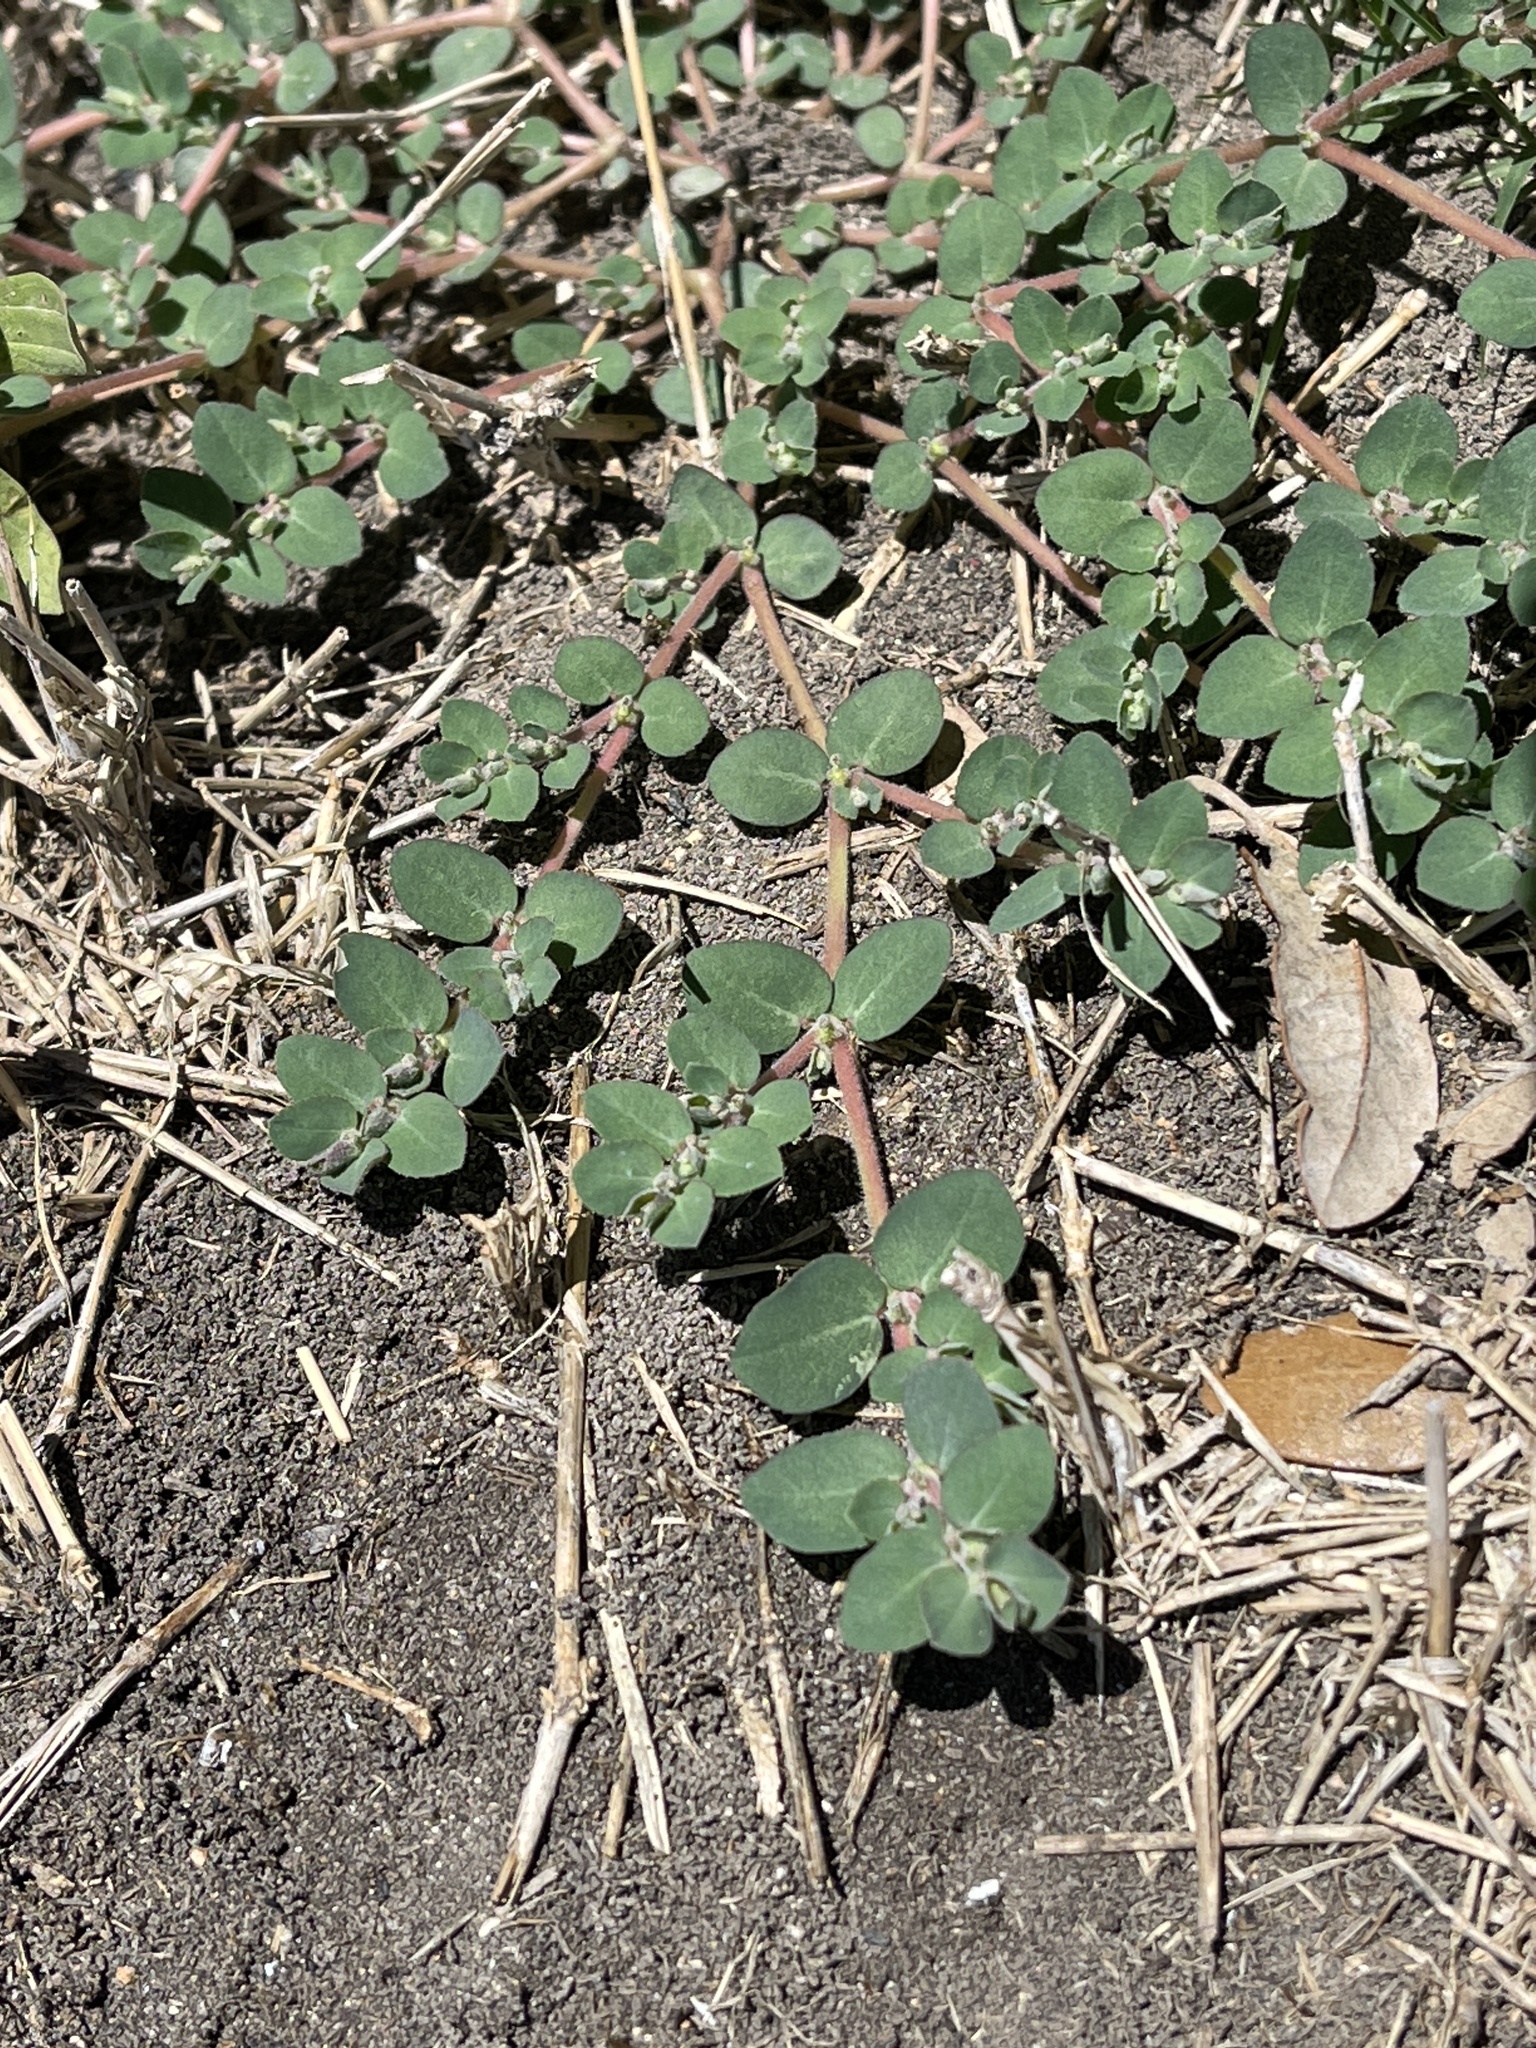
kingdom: Plantae
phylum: Tracheophyta
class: Magnoliopsida
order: Malpighiales
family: Euphorbiaceae
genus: Euphorbia
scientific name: Euphorbia prostrata
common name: Prostrate sandmat
